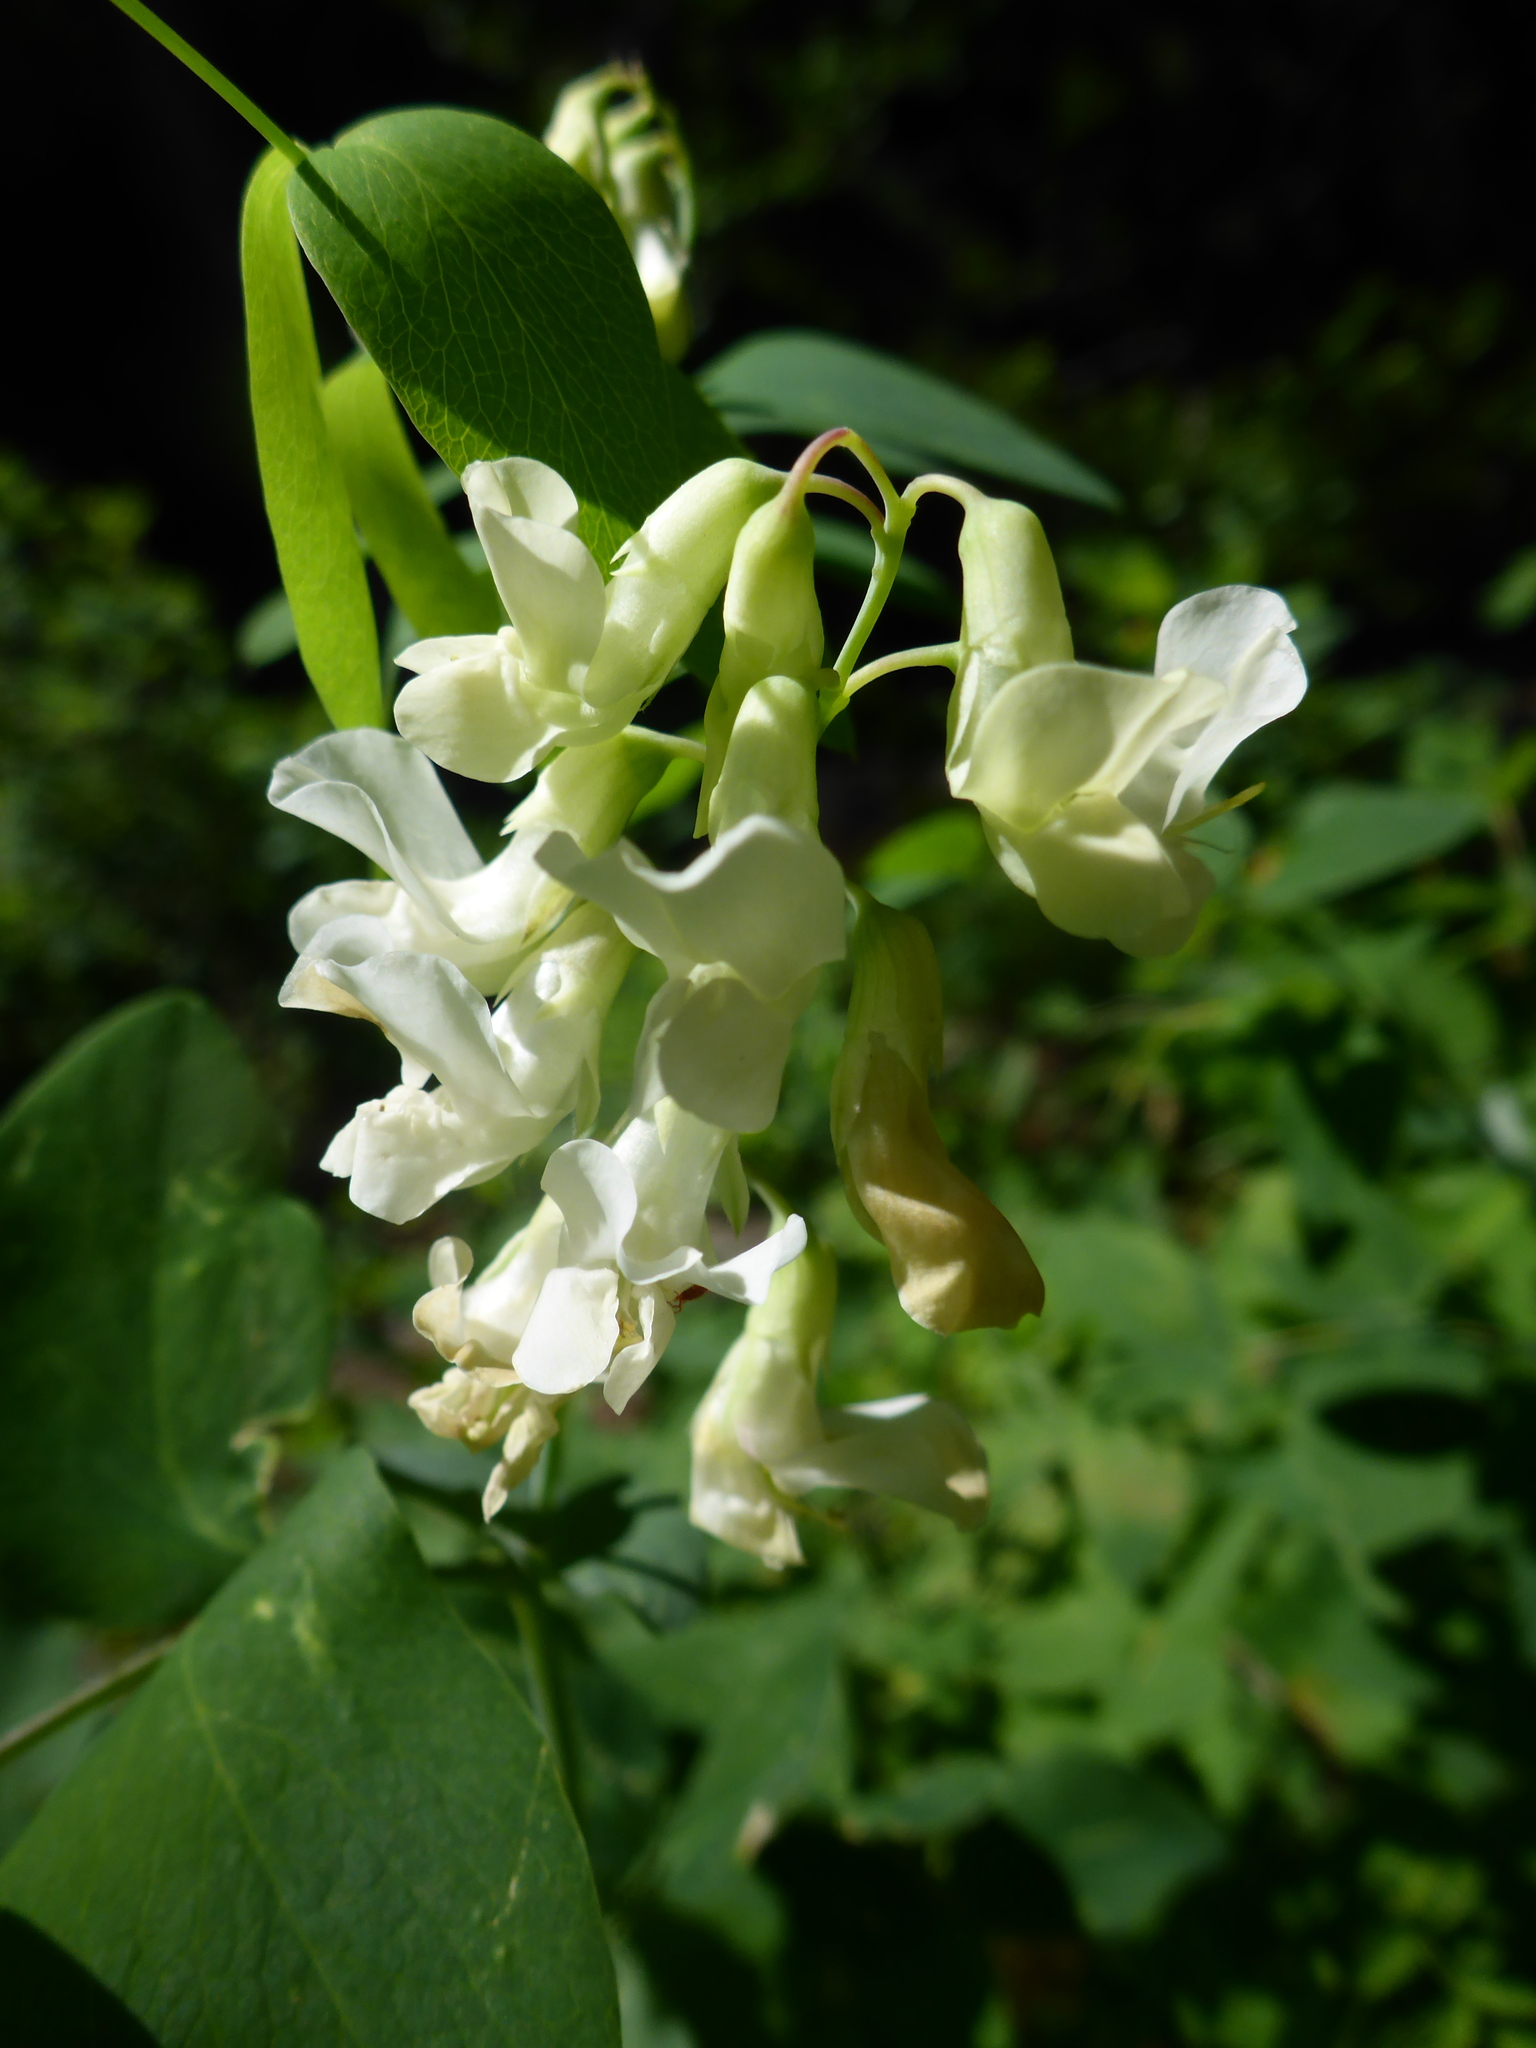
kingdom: Plantae
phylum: Tracheophyta
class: Magnoliopsida
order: Fabales
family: Fabaceae
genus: Lathyrus
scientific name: Lathyrus ochroleucus
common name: Pale vetchling
